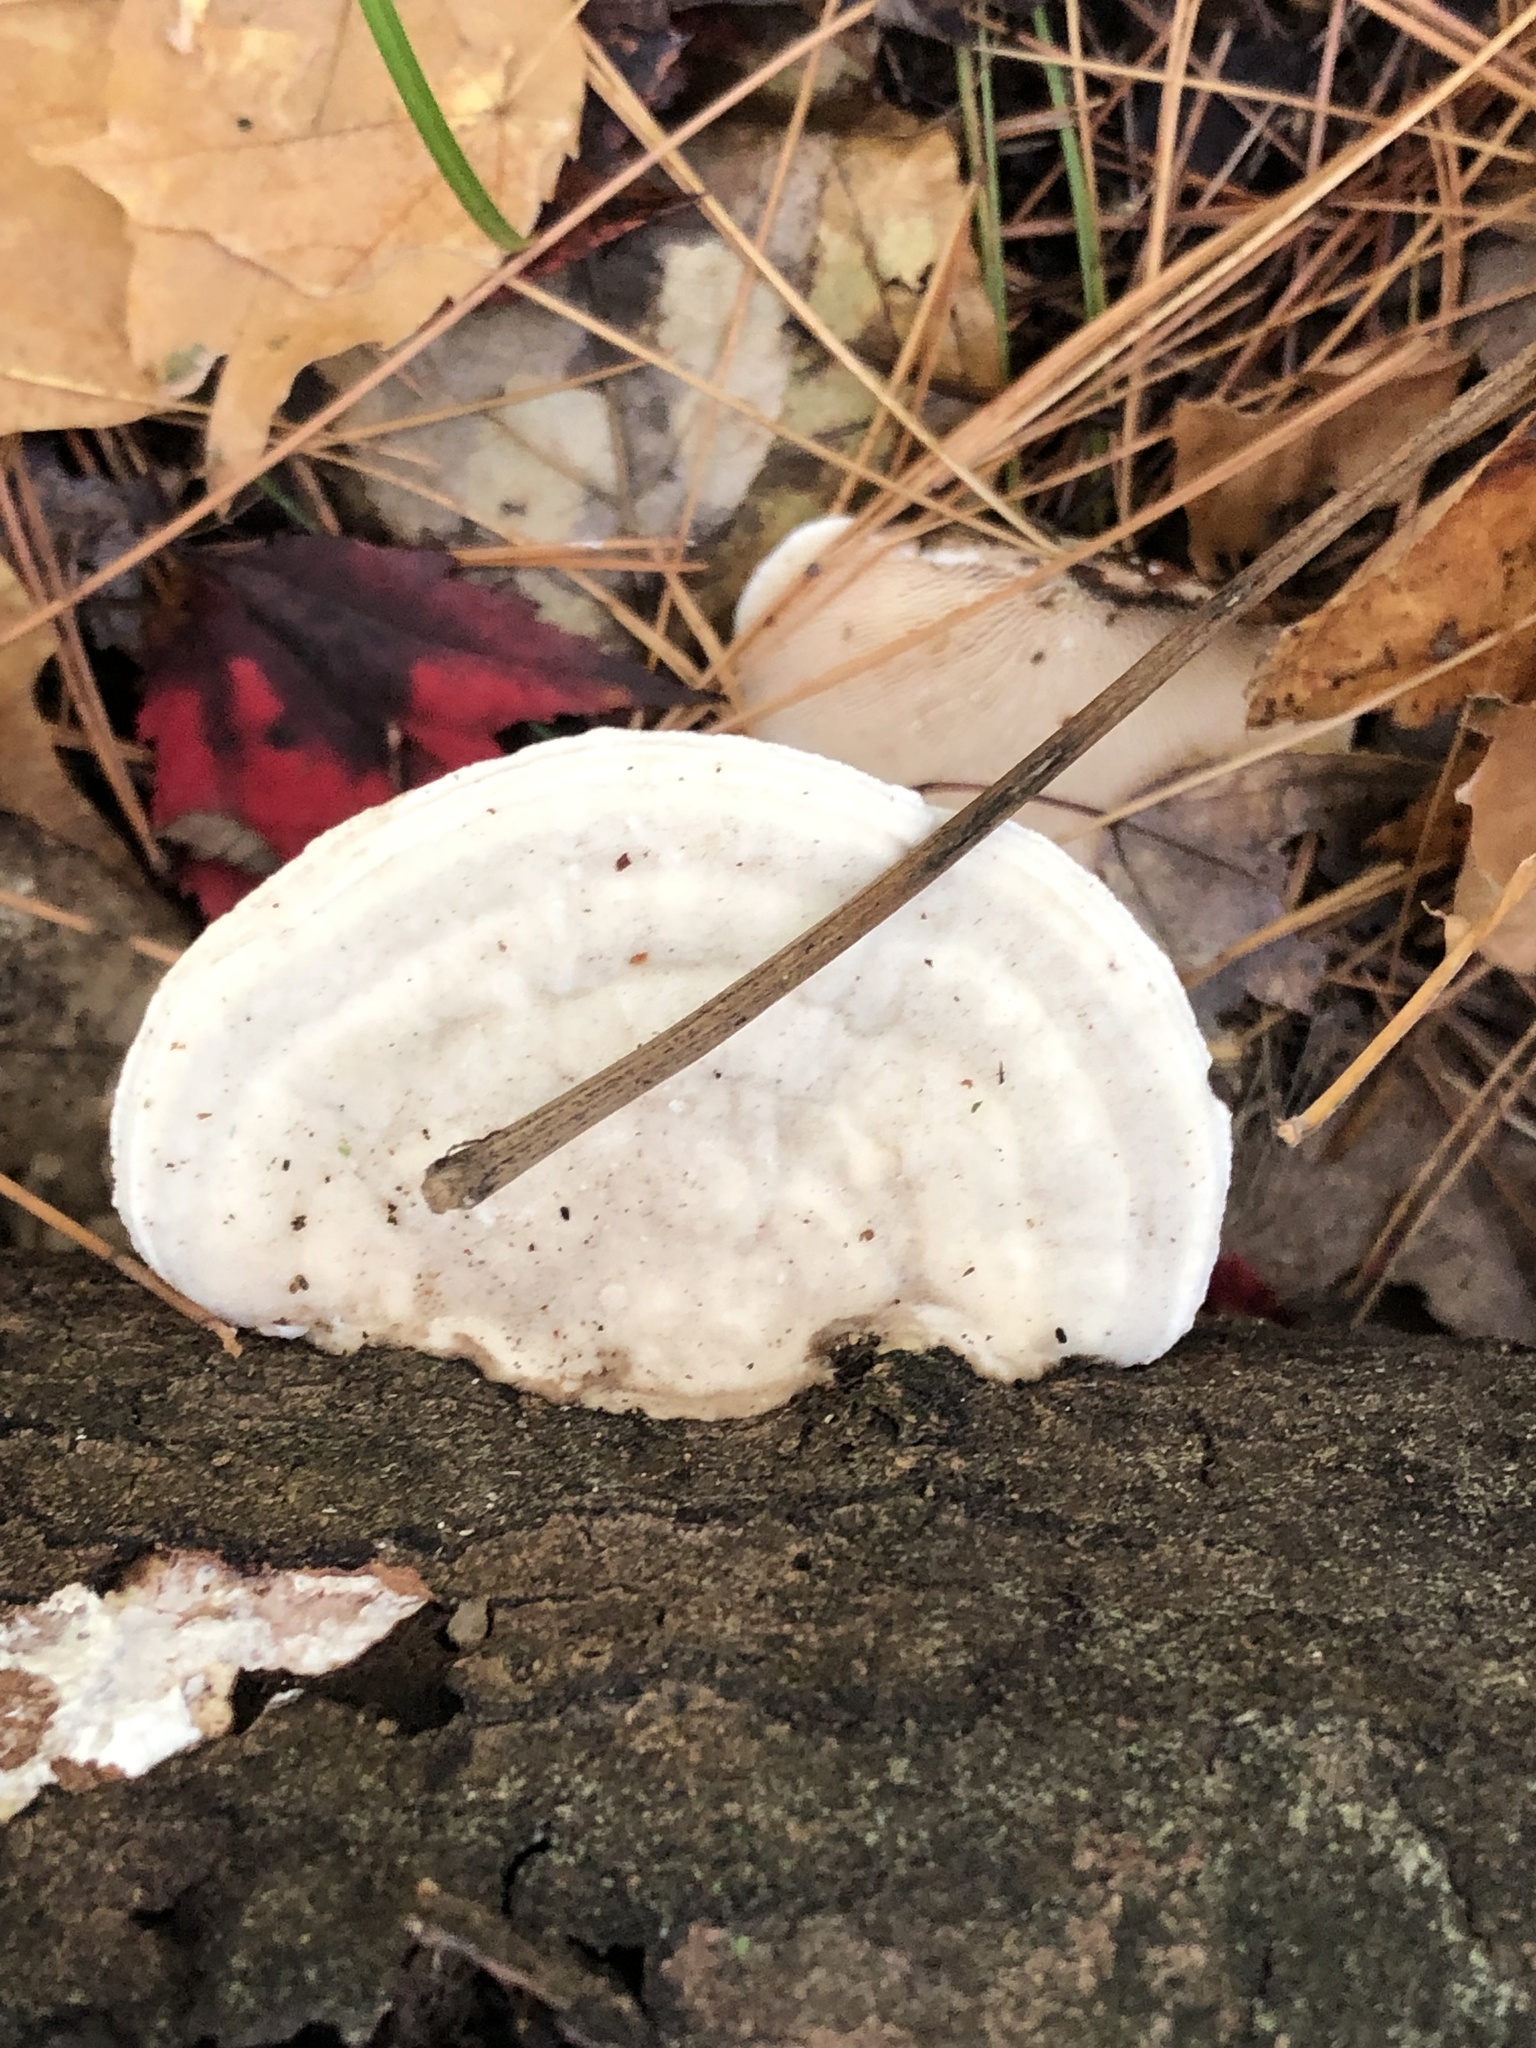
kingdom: Fungi
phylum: Basidiomycota
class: Agaricomycetes
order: Polyporales
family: Polyporaceae
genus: Trametes
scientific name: Trametes gibbosa
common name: Lumpy bracket
